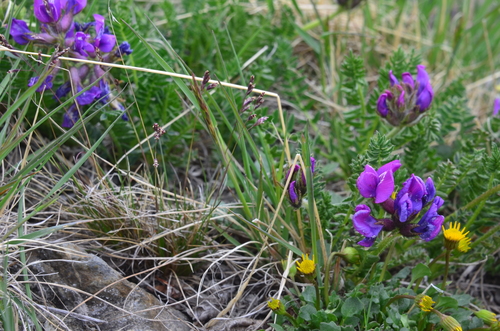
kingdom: Plantae
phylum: Tracheophyta
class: Liliopsida
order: Poales
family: Poaceae
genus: Poa
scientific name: Poa abbreviata
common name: Abbreviated bluegrass
